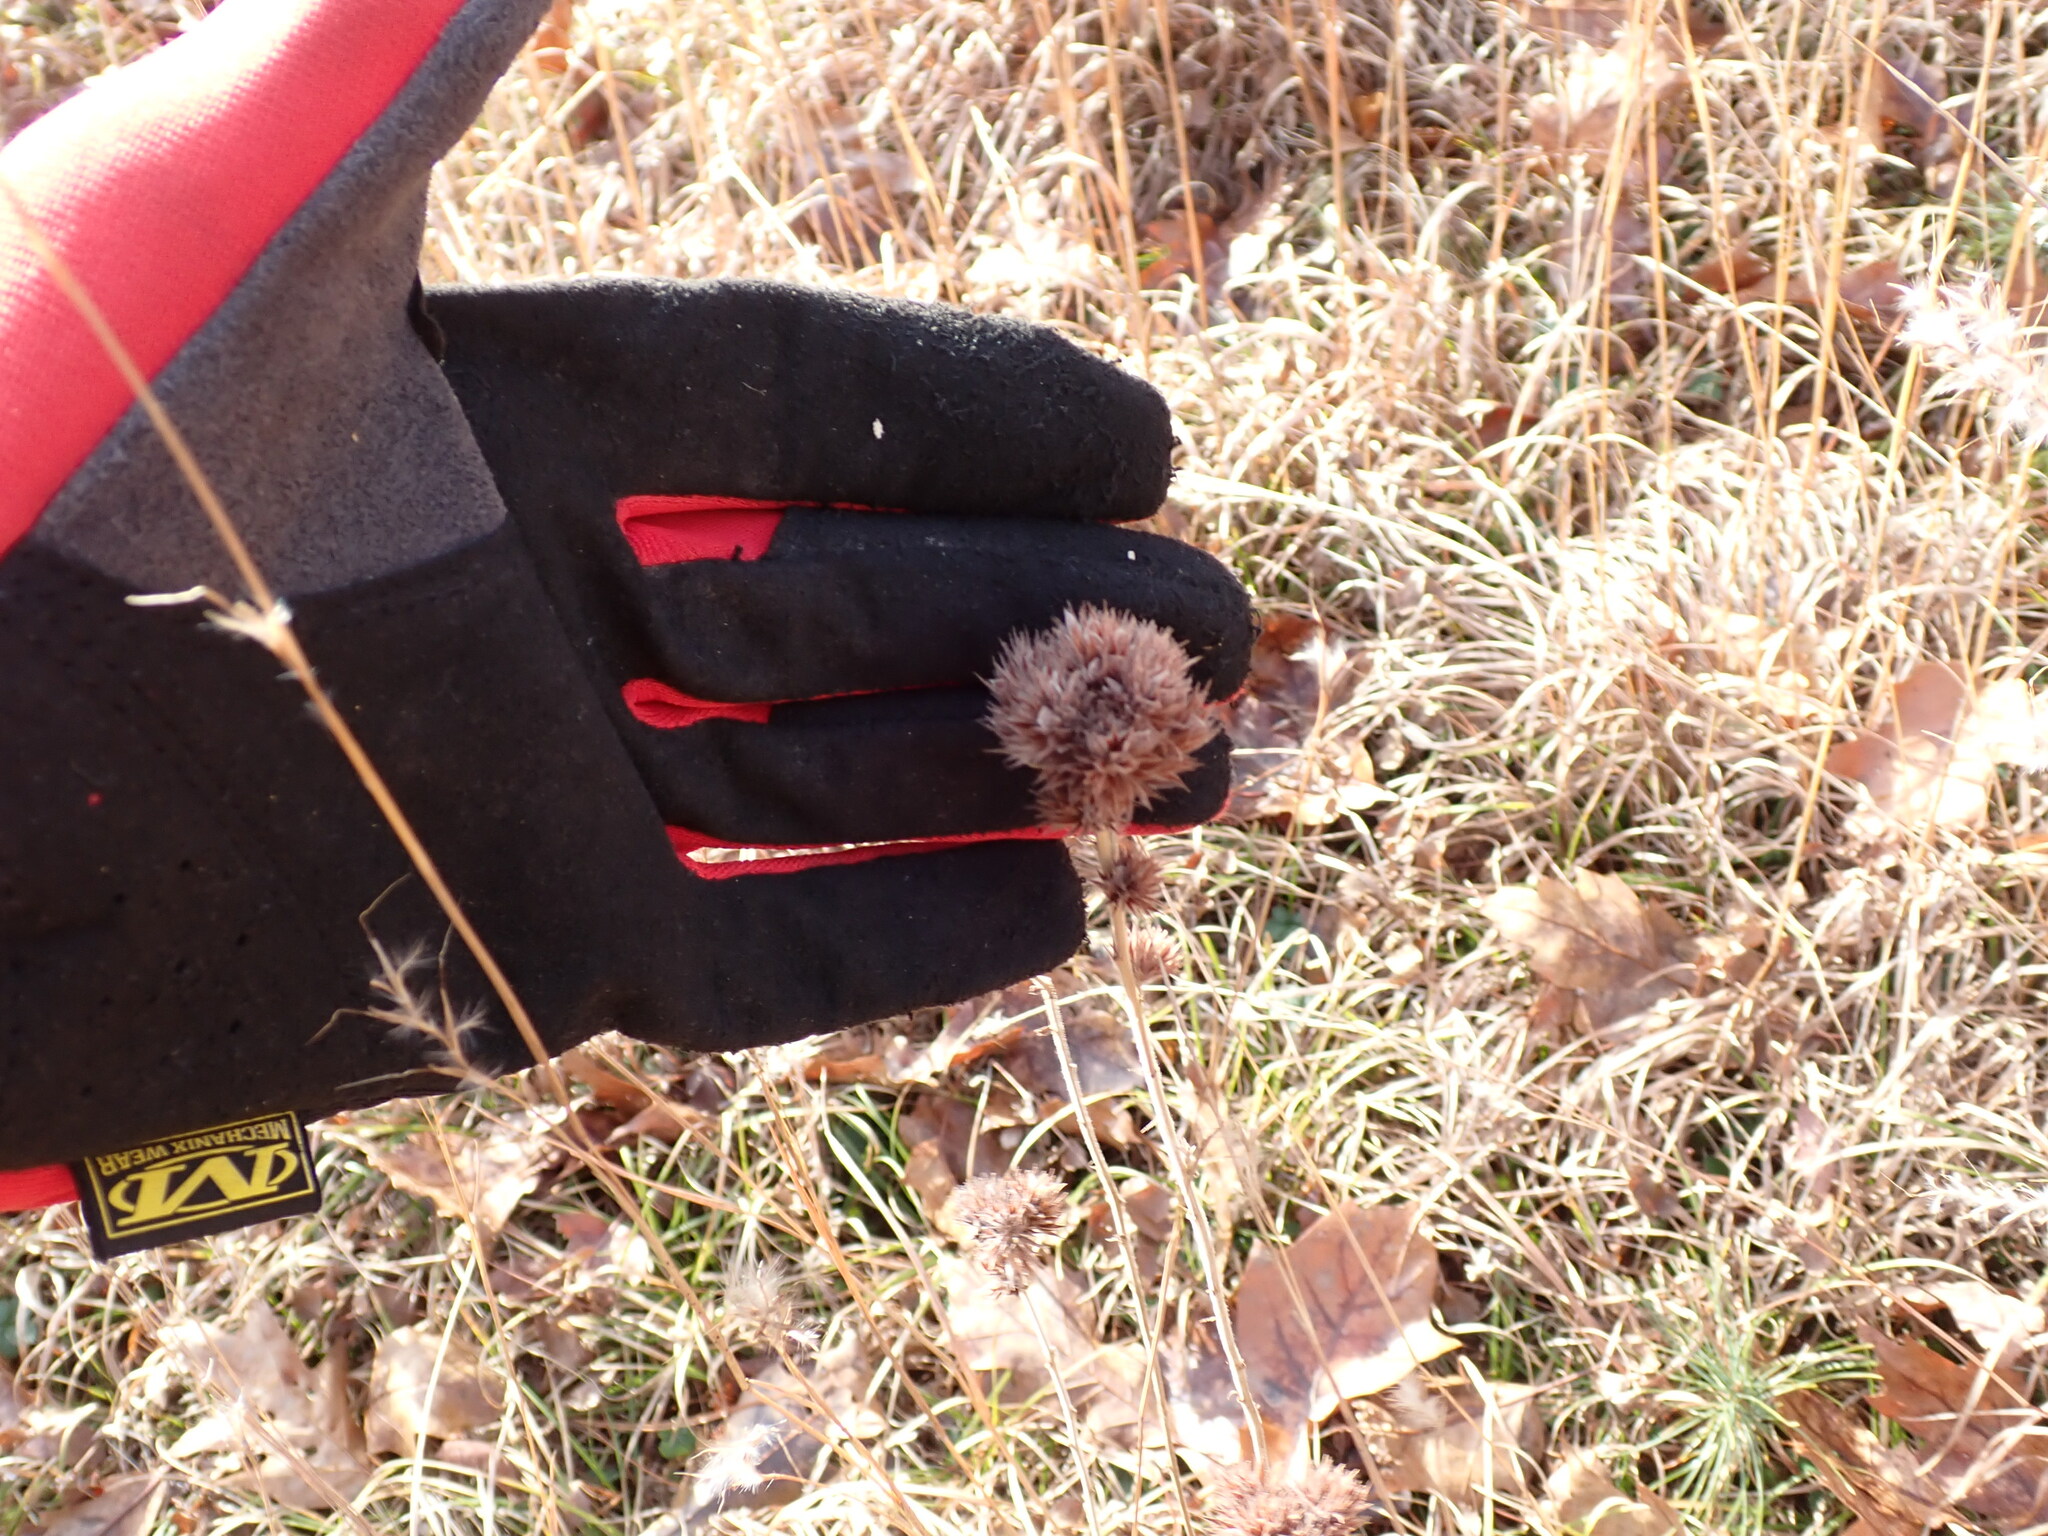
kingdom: Plantae
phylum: Tracheophyta
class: Magnoliopsida
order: Fabales
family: Fabaceae
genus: Lespedeza
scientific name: Lespedeza capitata
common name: Dusty clover
